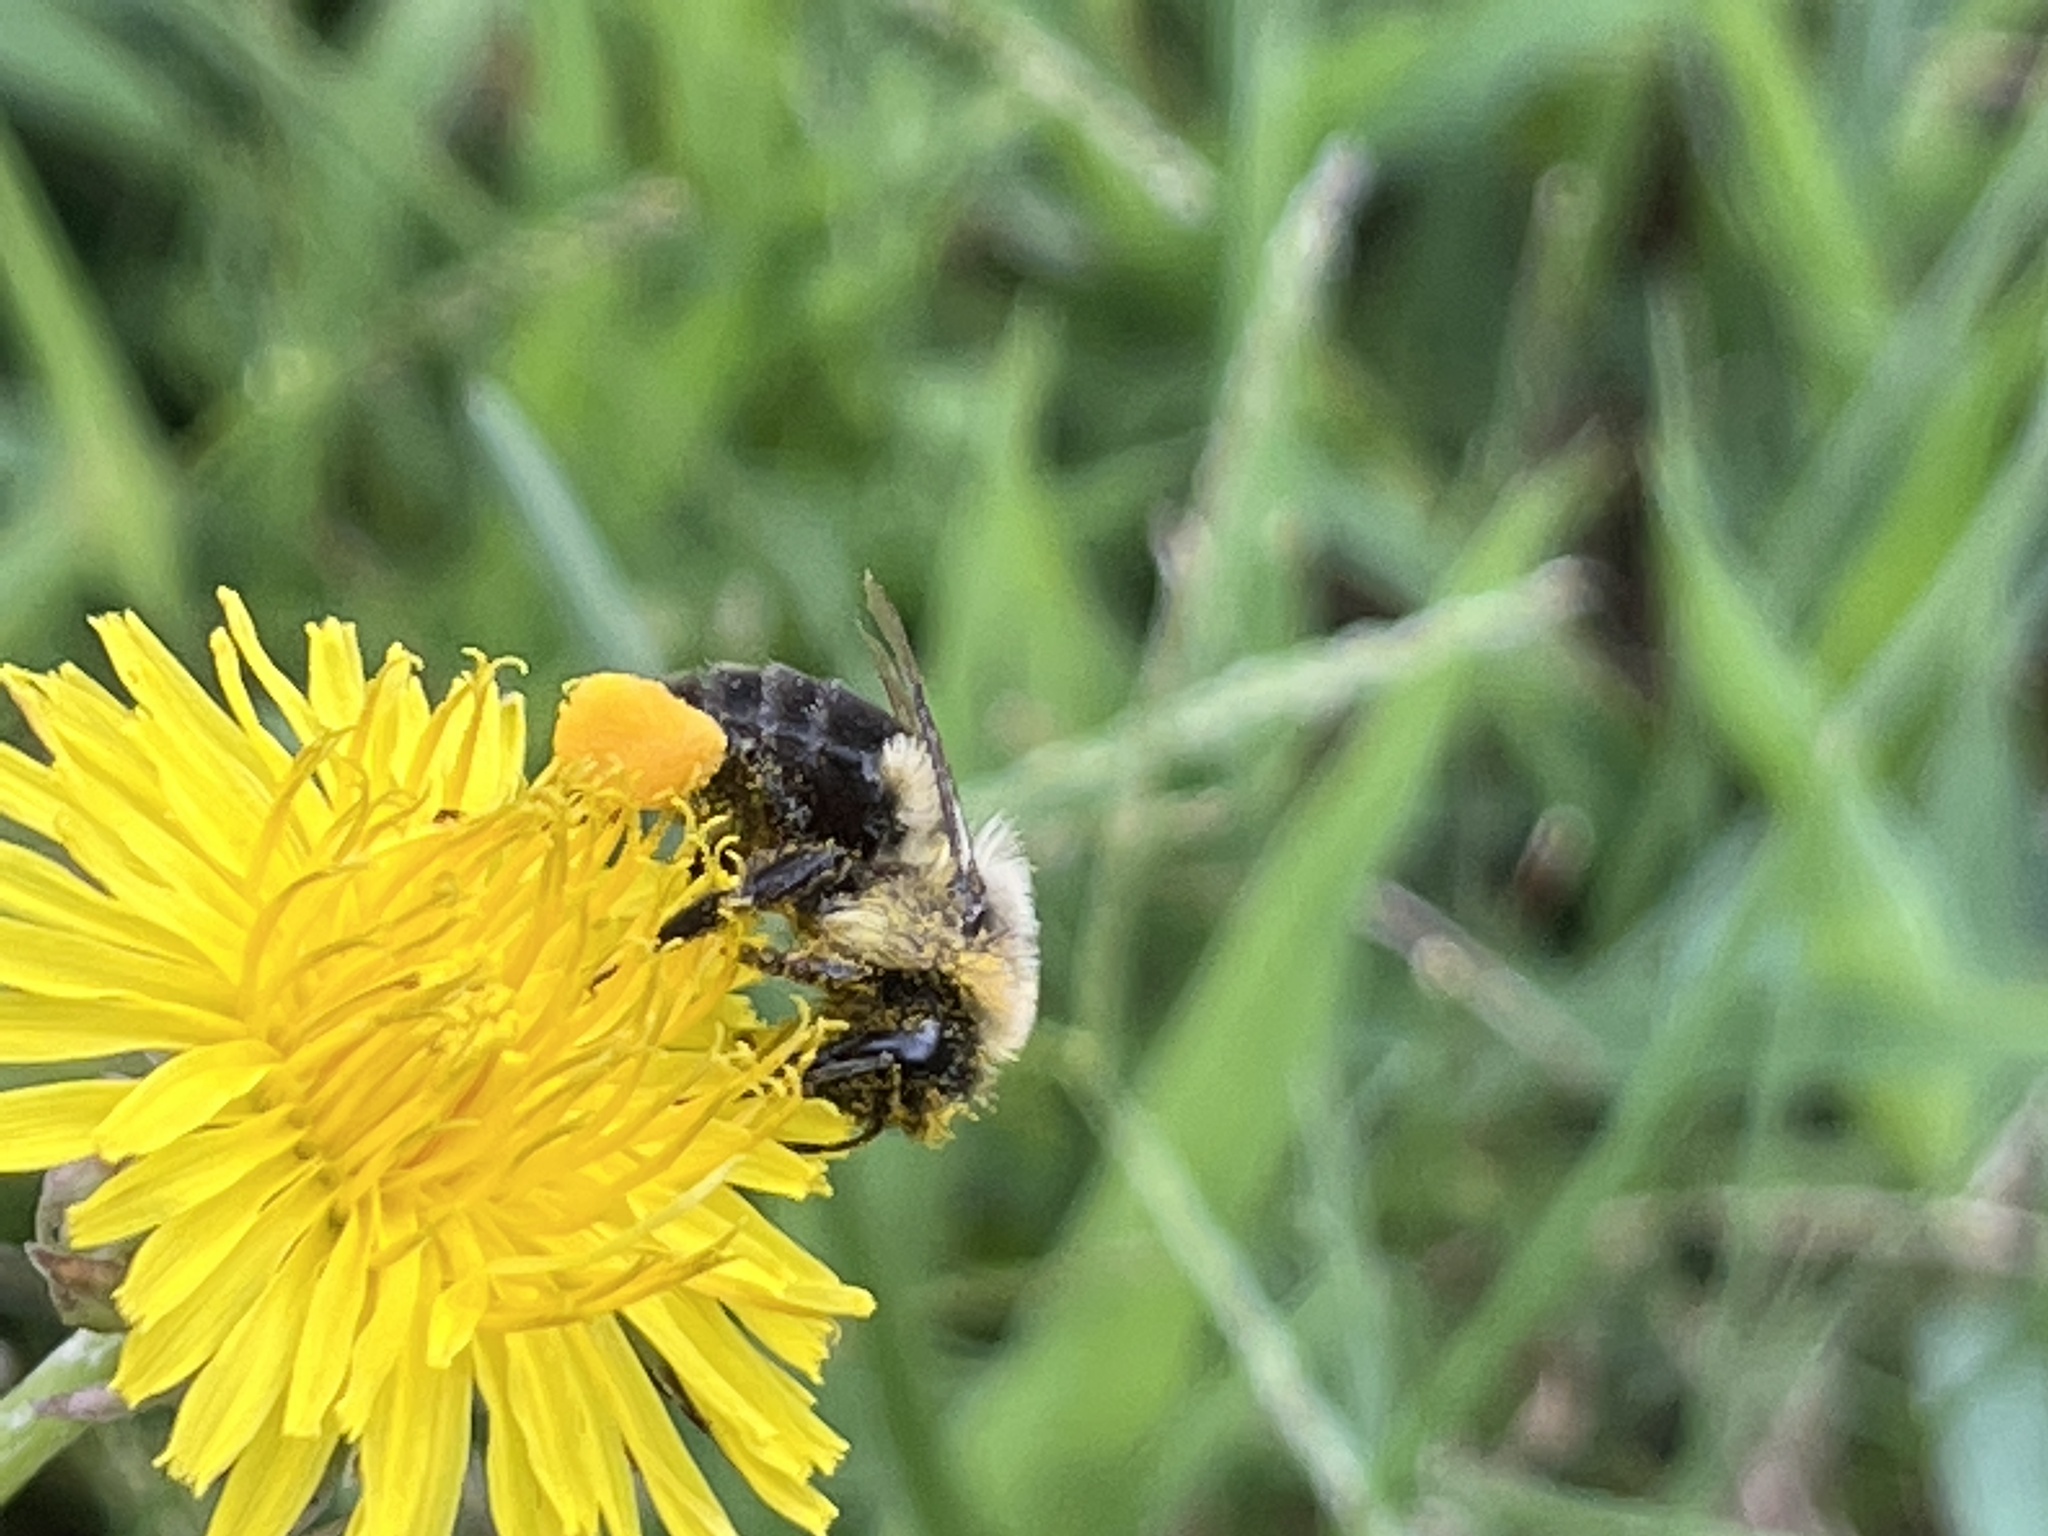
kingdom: Animalia
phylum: Arthropoda
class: Insecta
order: Hymenoptera
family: Apidae
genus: Bombus
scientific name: Bombus impatiens
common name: Common eastern bumble bee
